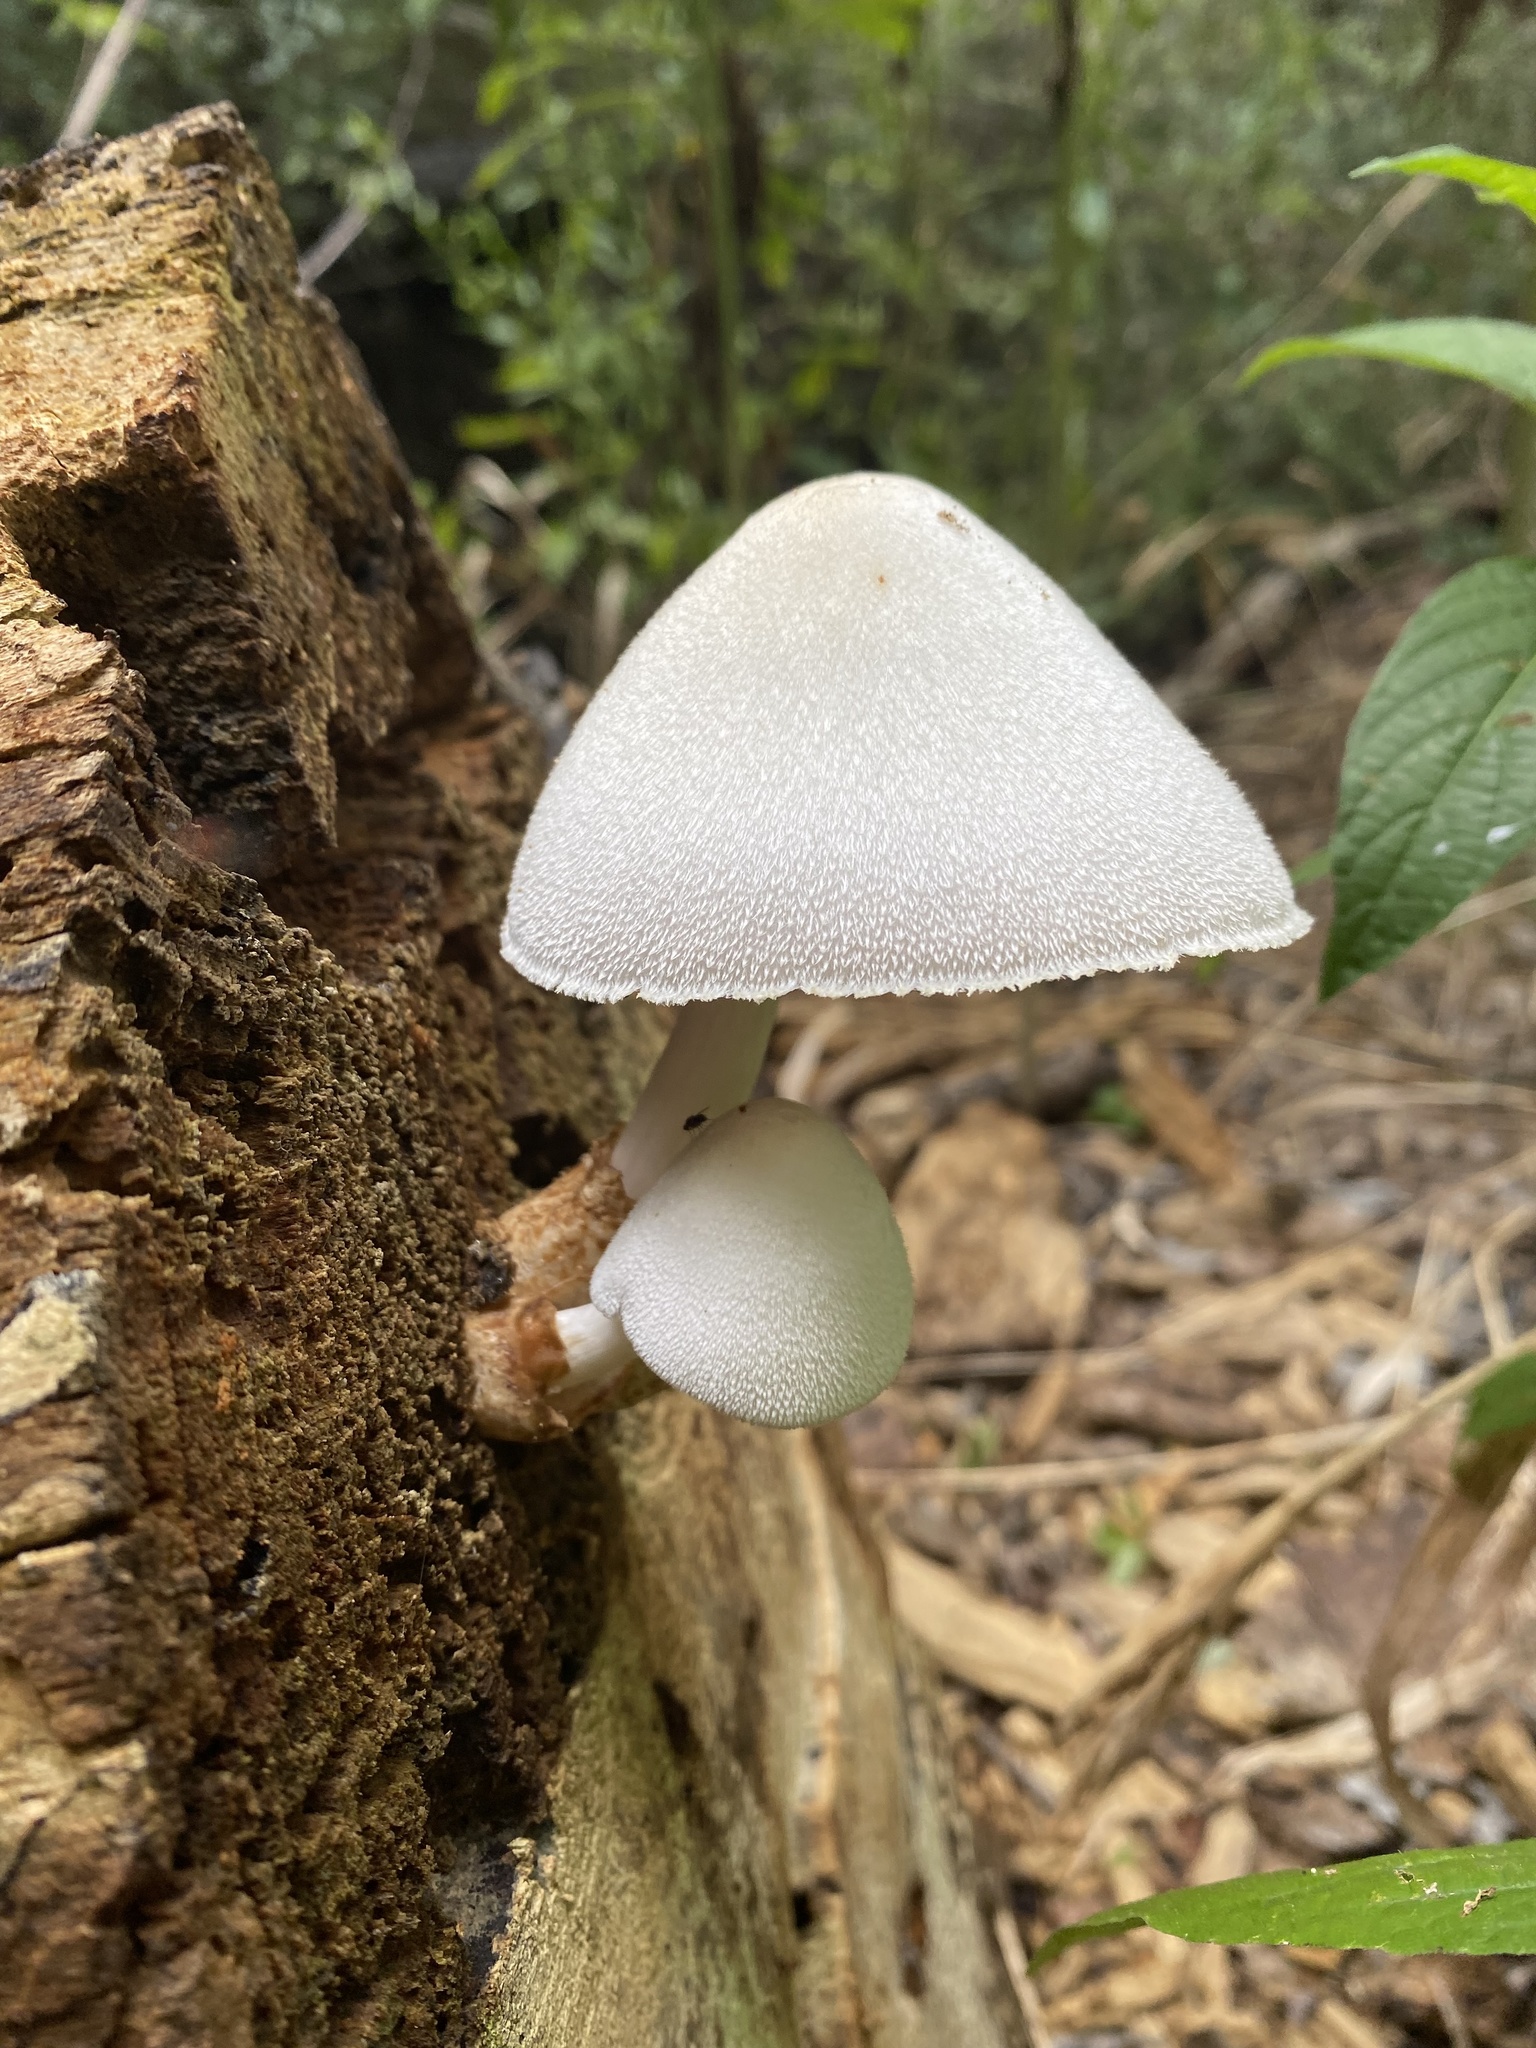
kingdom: Fungi
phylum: Basidiomycota
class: Agaricomycetes
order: Agaricales
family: Pluteaceae
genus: Volvariella
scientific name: Volvariella bombycina
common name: Silky rosegill
